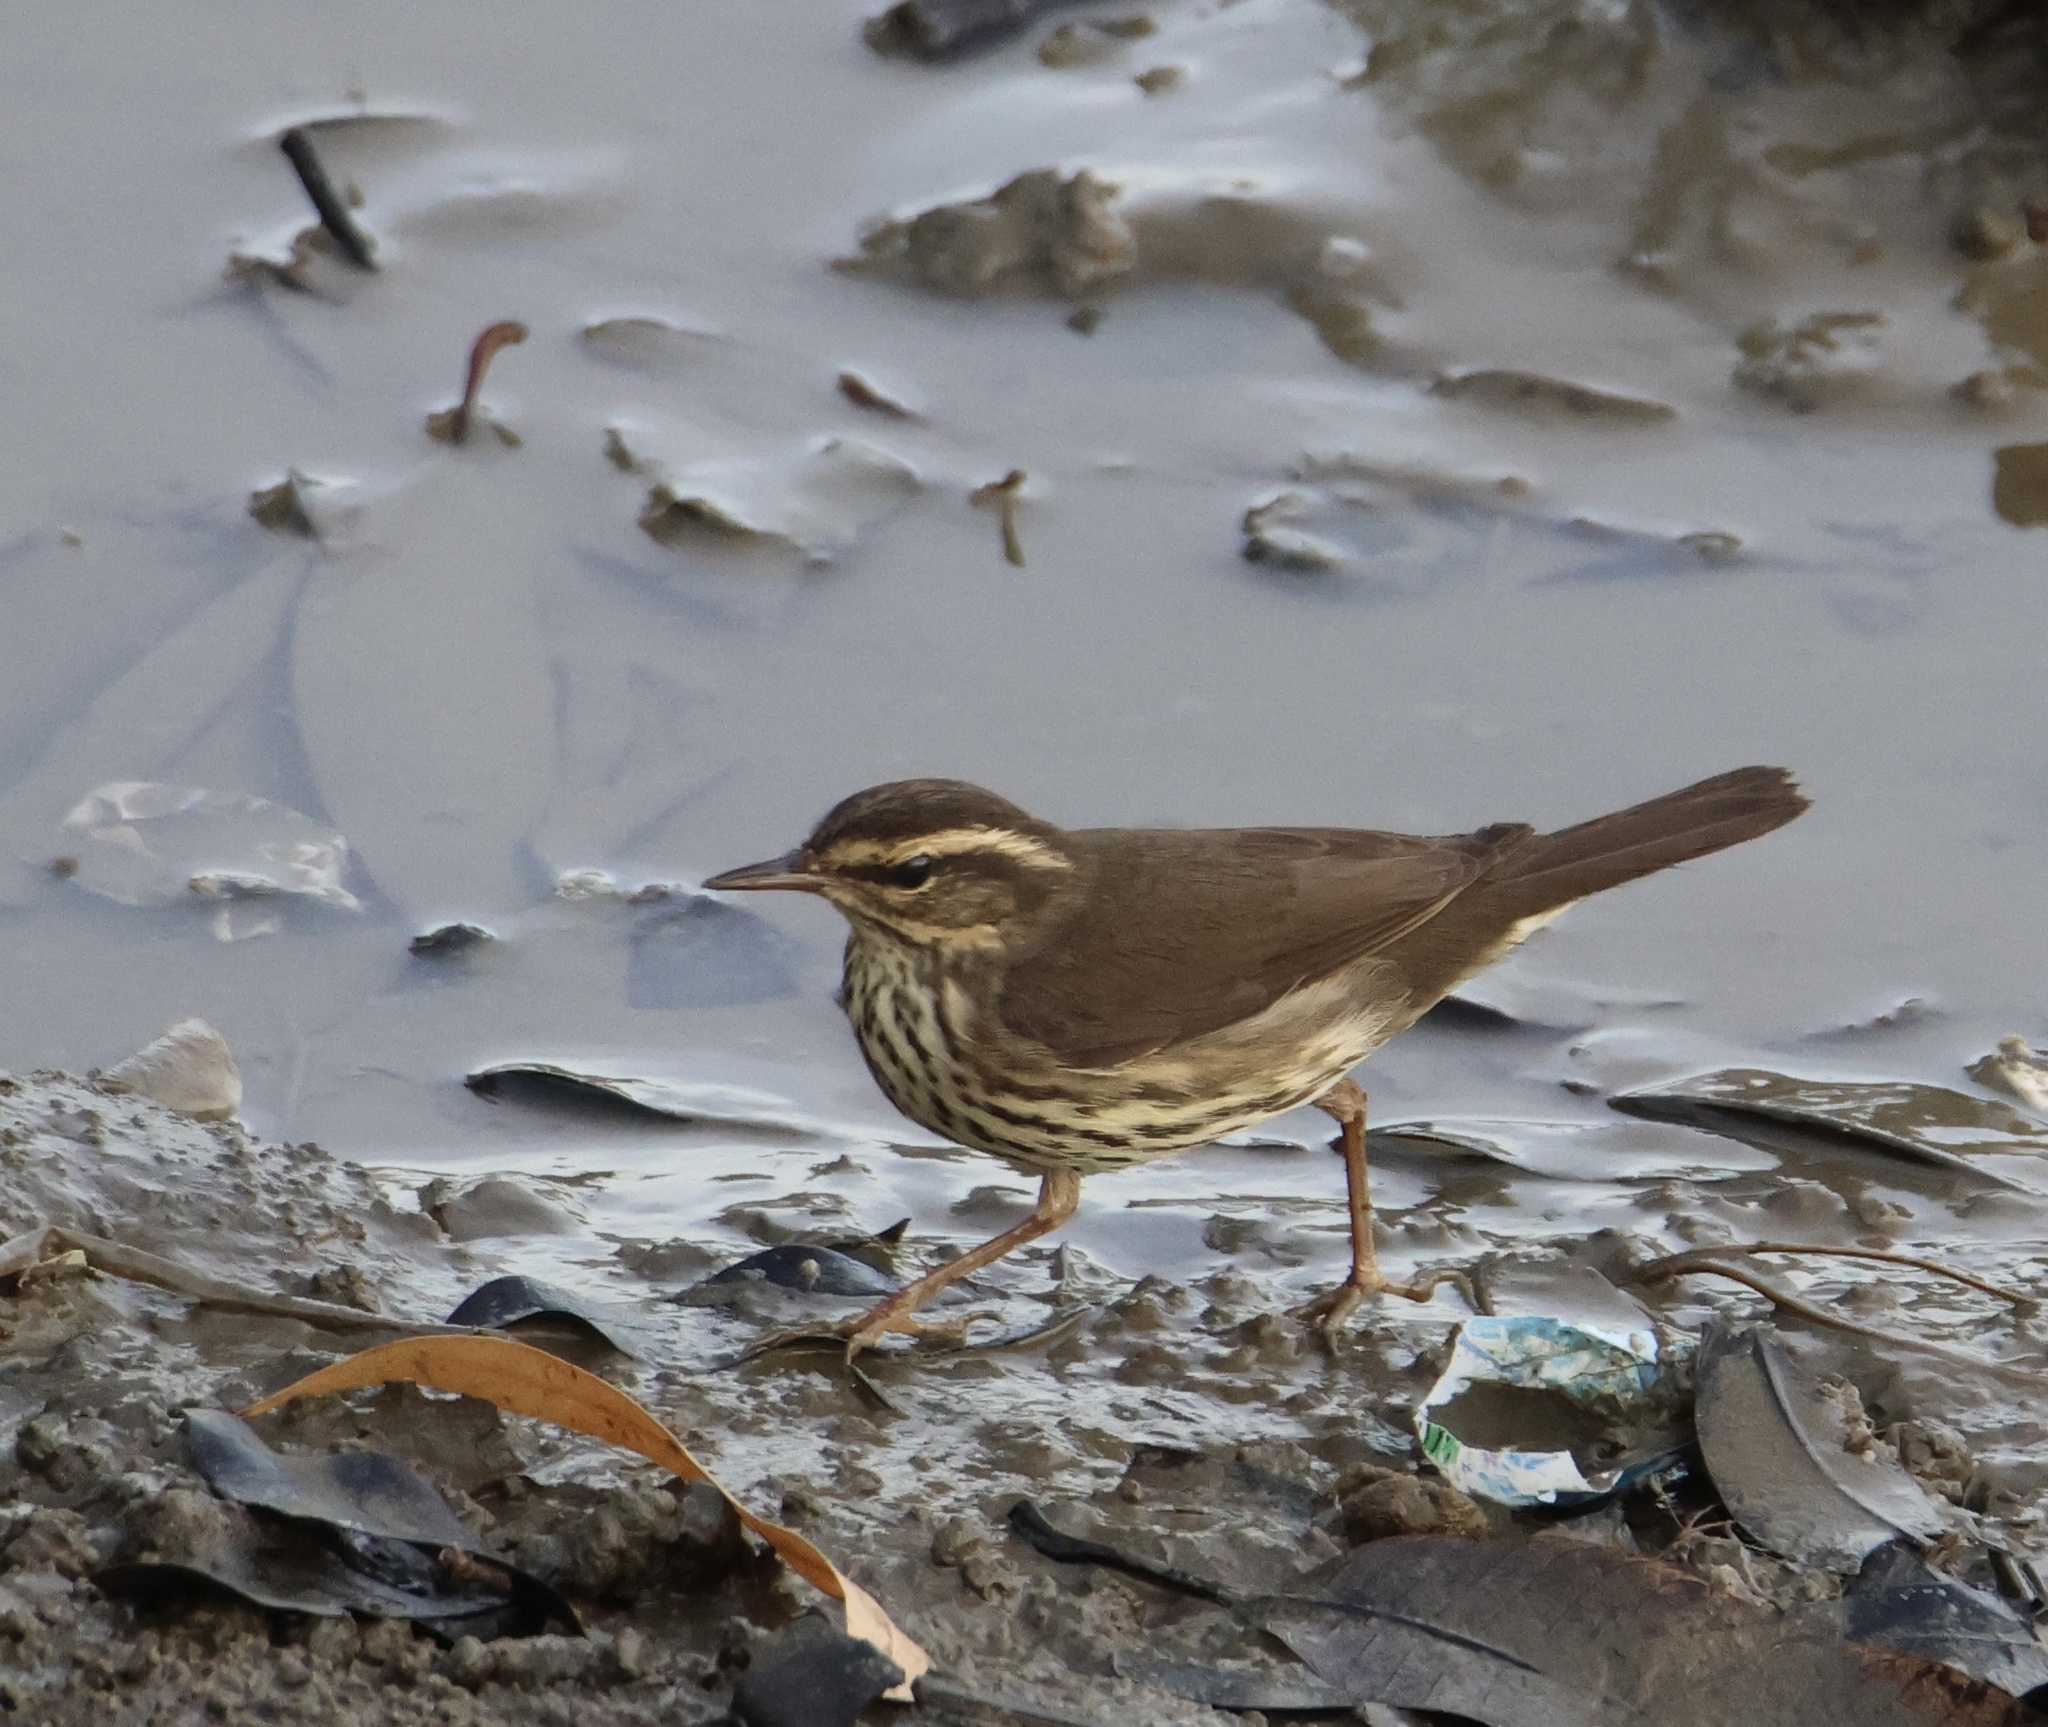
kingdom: Animalia
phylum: Chordata
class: Aves
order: Passeriformes
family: Parulidae
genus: Parkesia
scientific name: Parkesia noveboracensis
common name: Northern waterthrush
